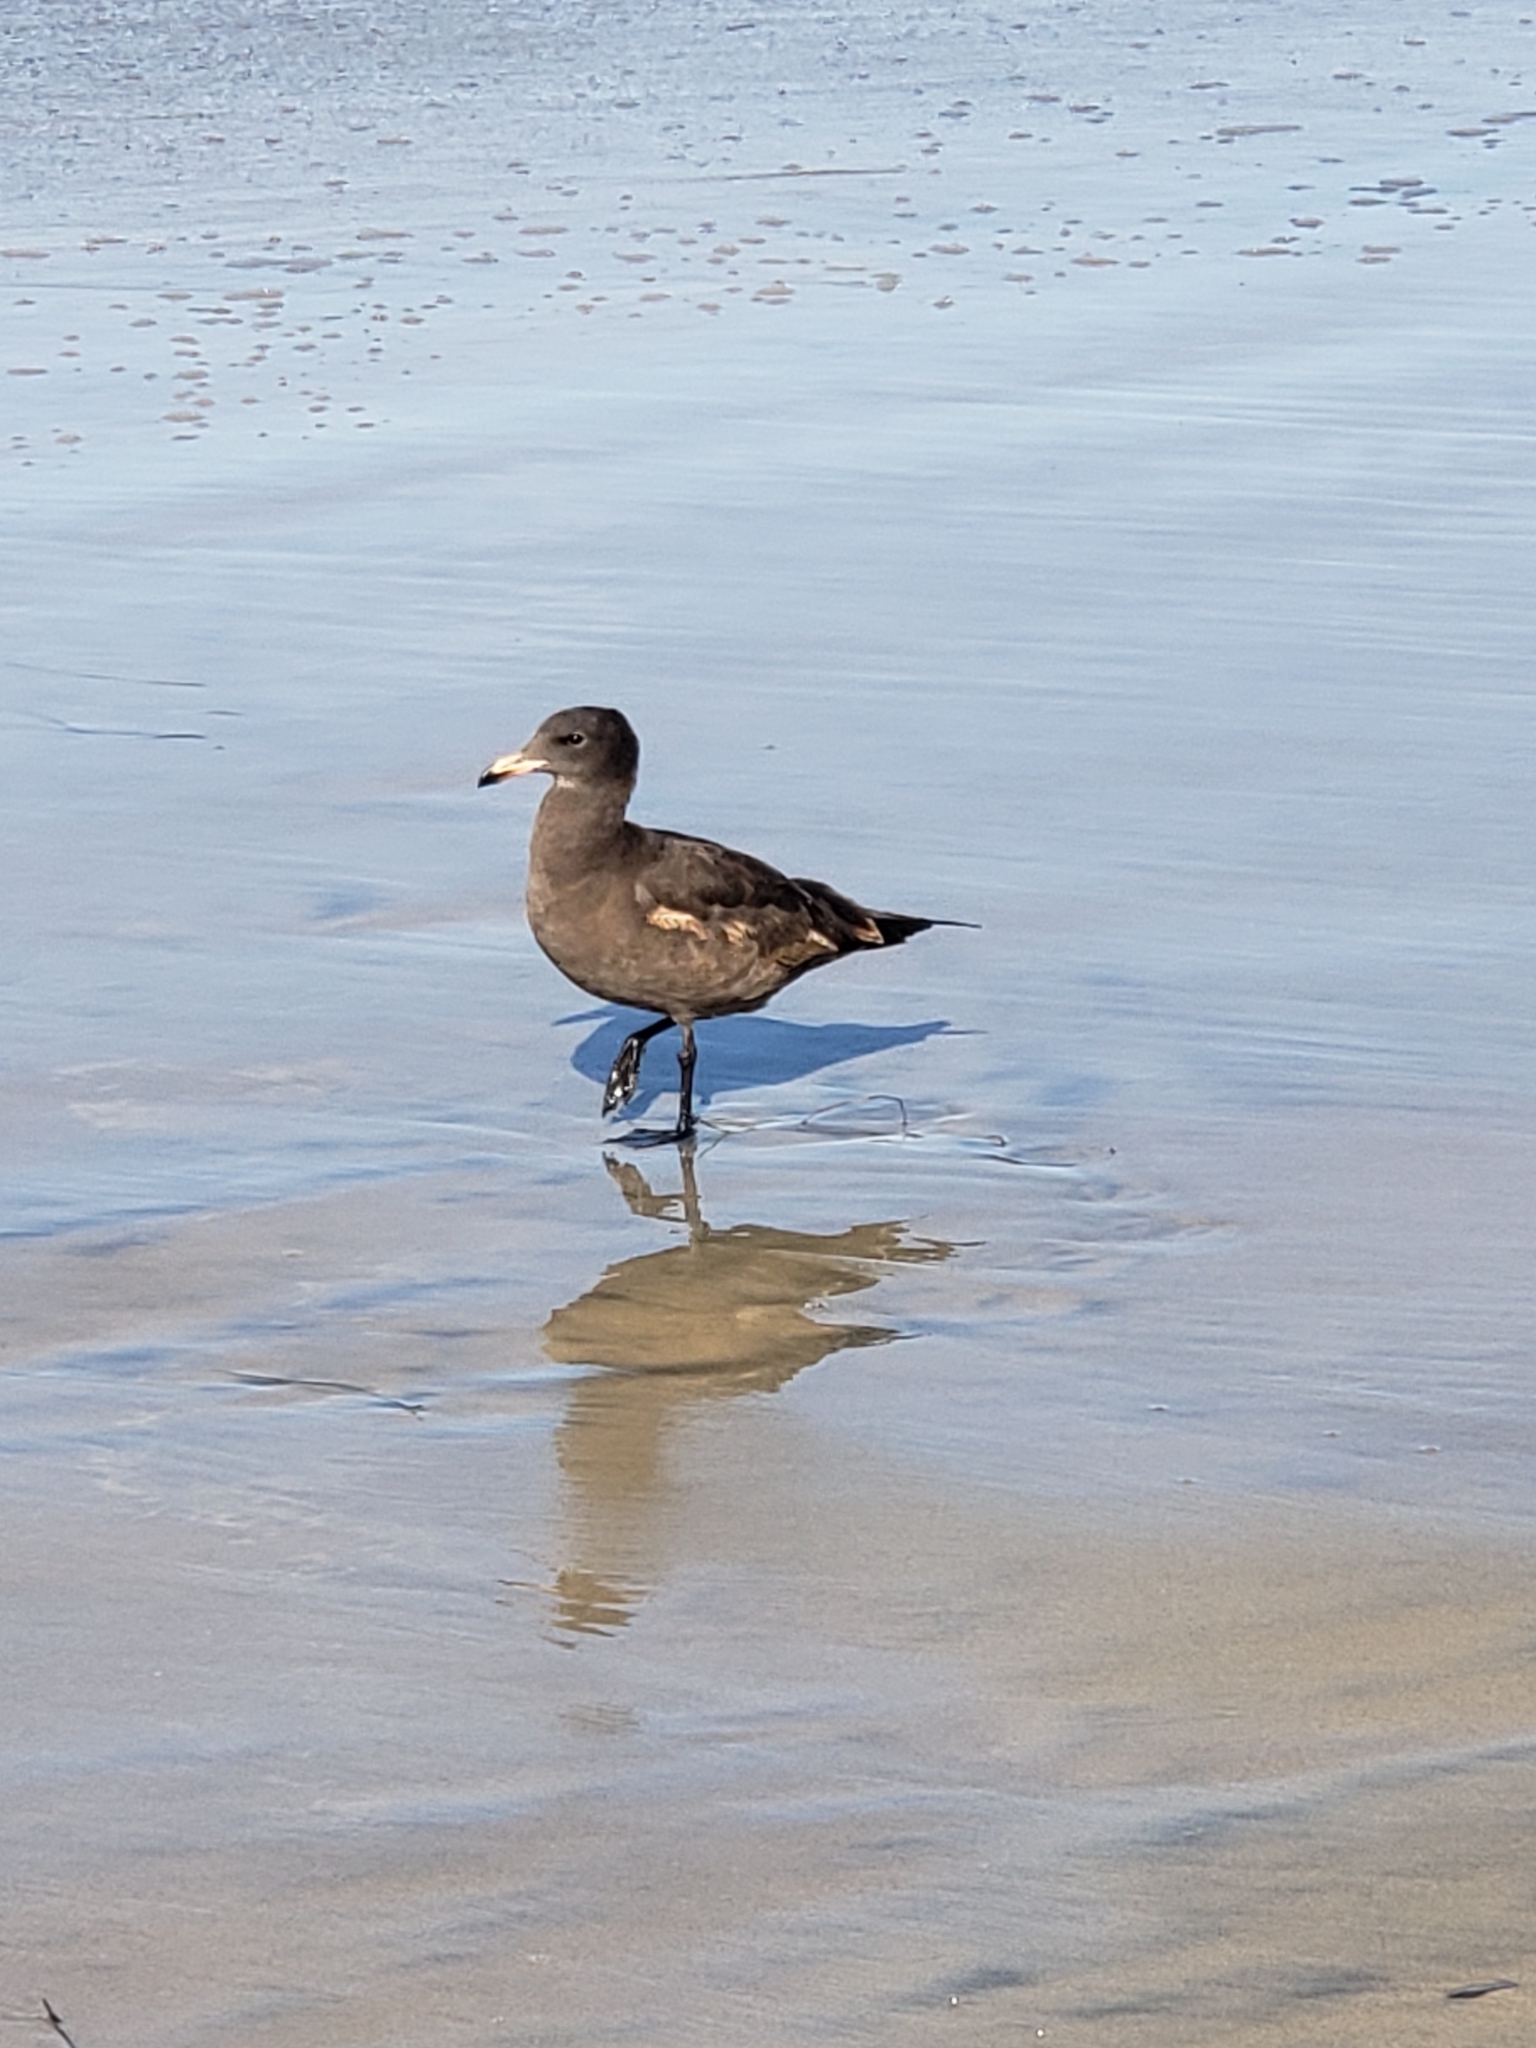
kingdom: Animalia
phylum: Chordata
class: Aves
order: Charadriiformes
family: Laridae
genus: Larus
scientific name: Larus heermanni
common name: Heermann's gull
